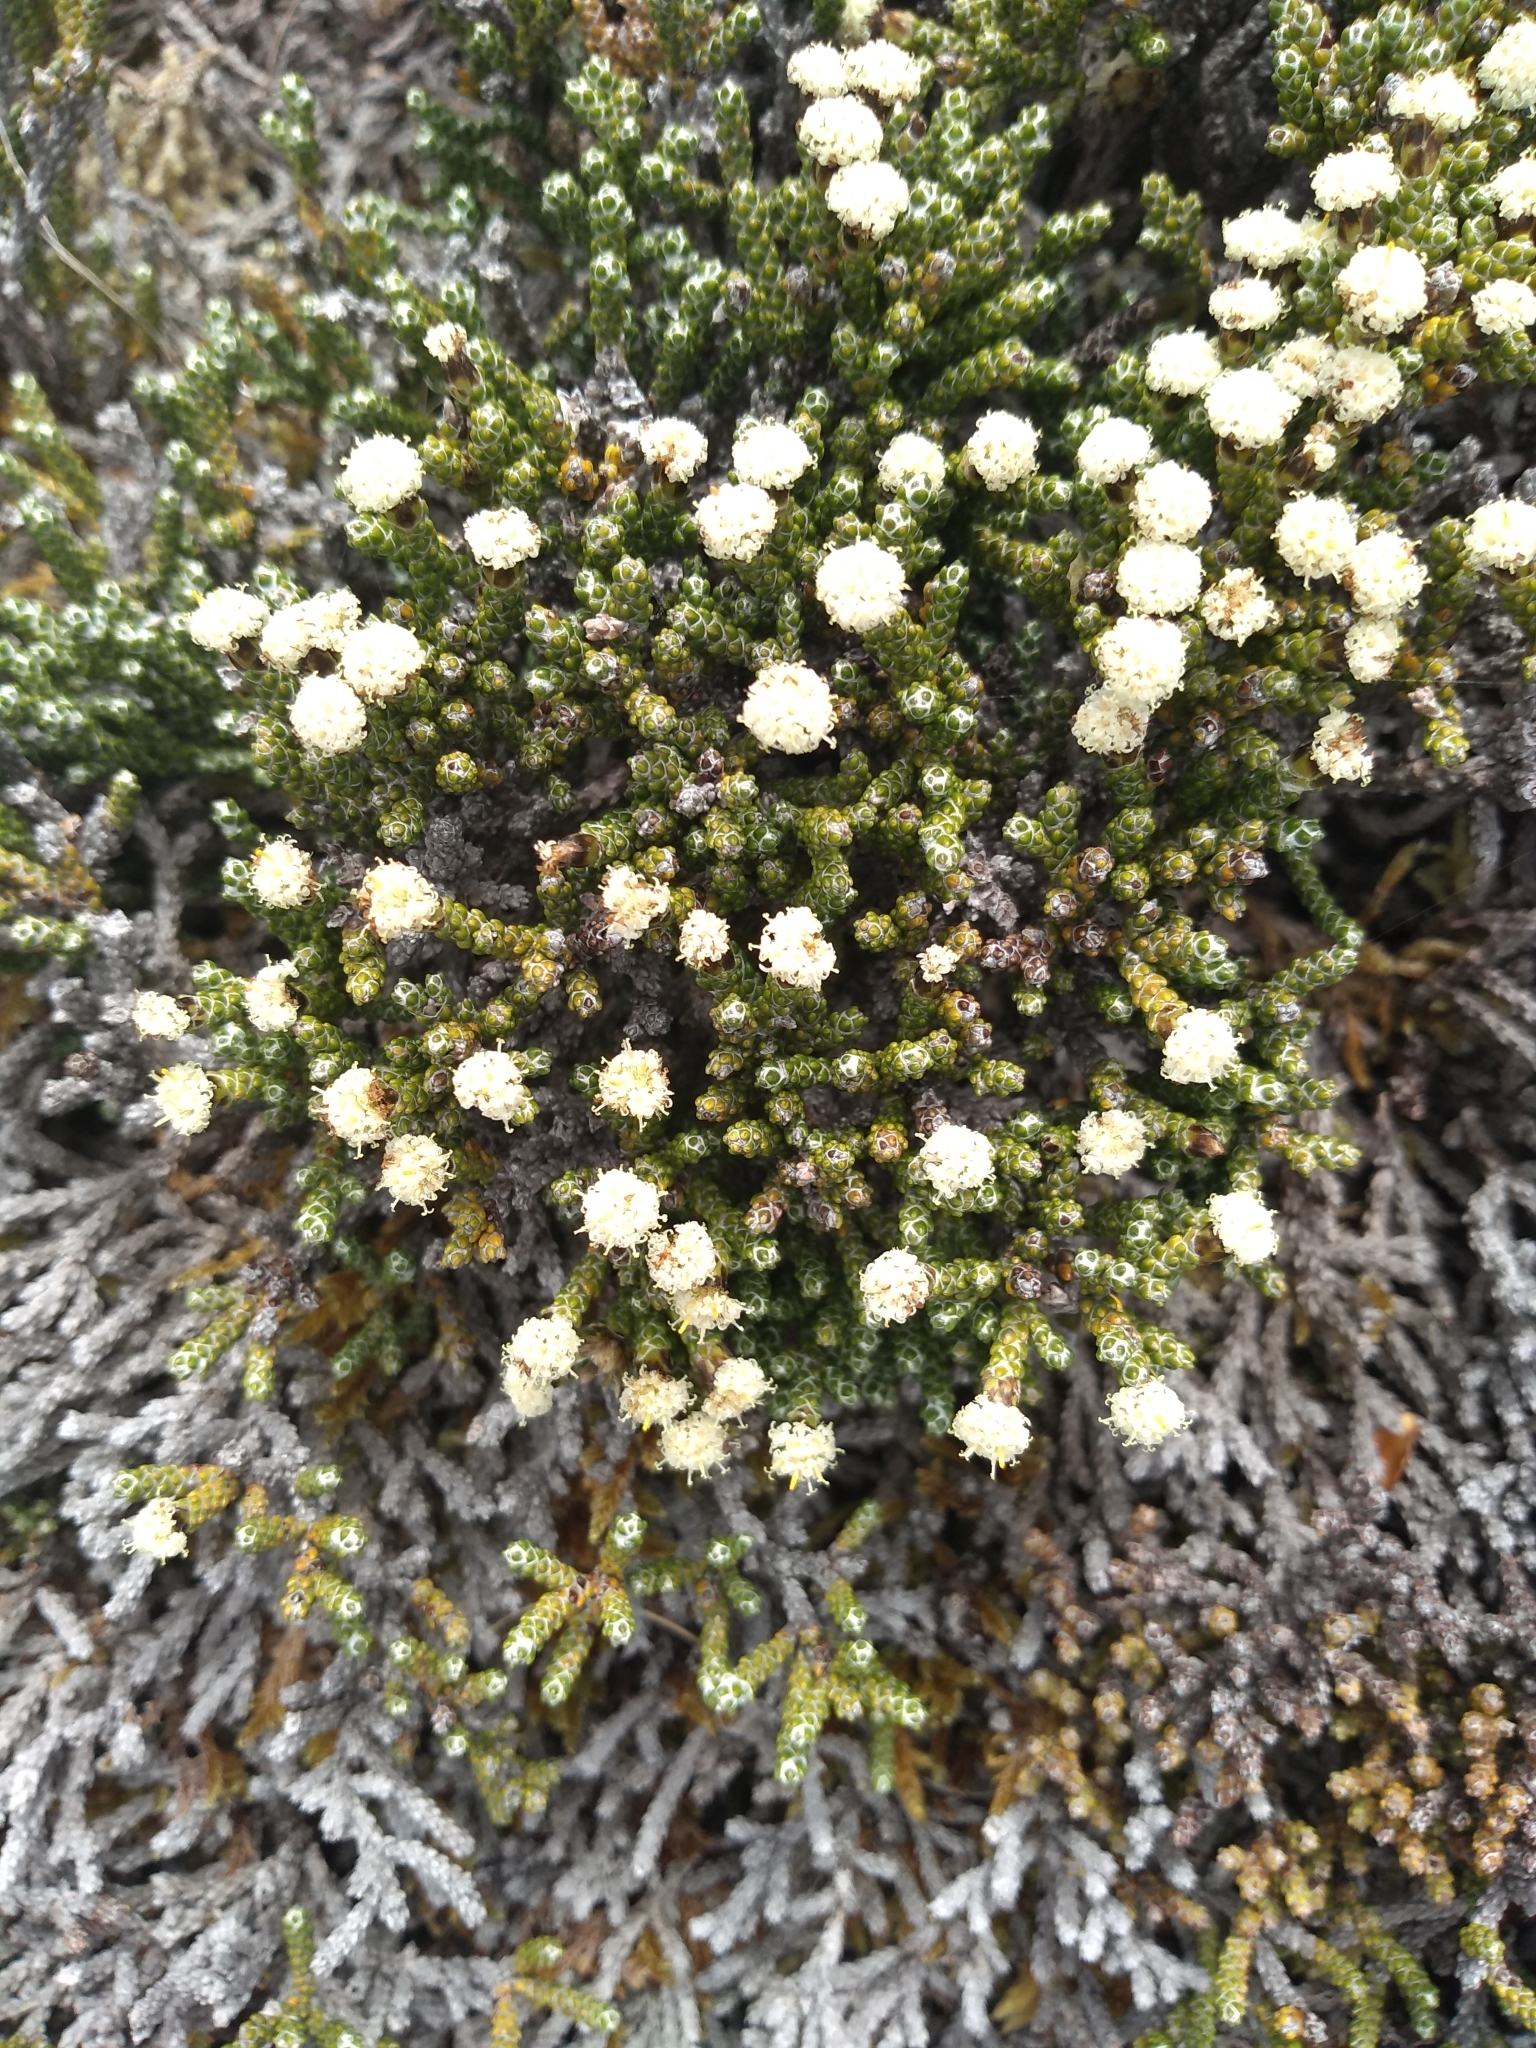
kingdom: Plantae
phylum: Tracheophyta
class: Magnoliopsida
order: Asterales
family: Asteraceae
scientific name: Asteraceae
